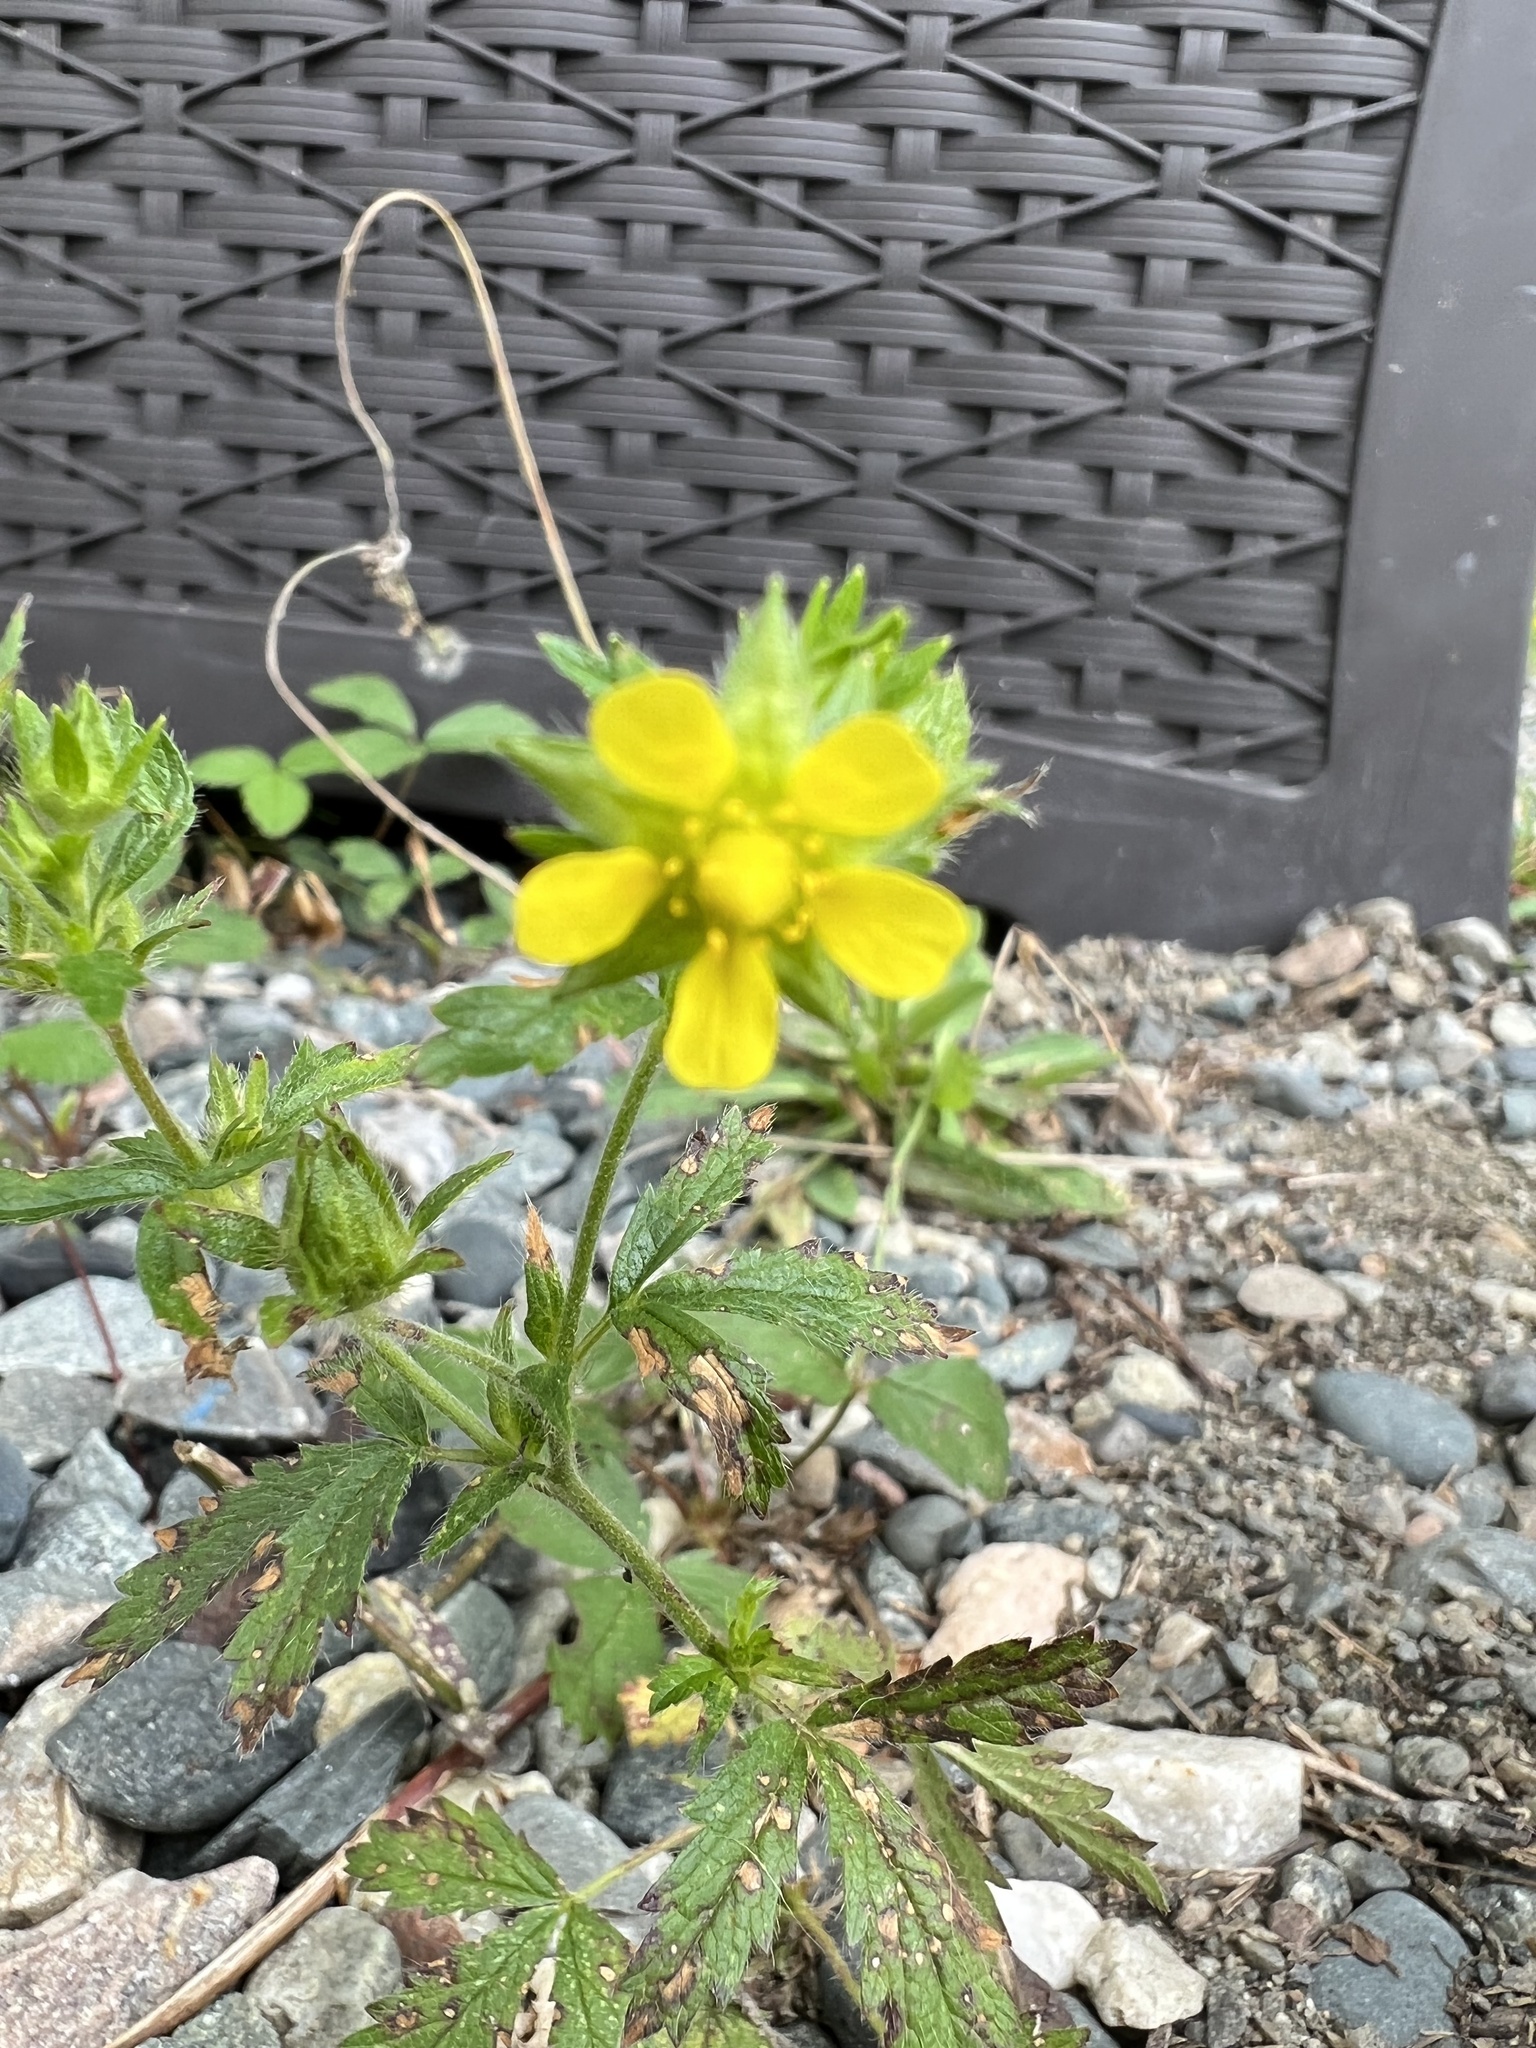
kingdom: Plantae
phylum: Tracheophyta
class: Magnoliopsida
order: Rosales
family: Rosaceae
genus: Potentilla
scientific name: Potentilla norvegica
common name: Ternate-leaved cinquefoil
